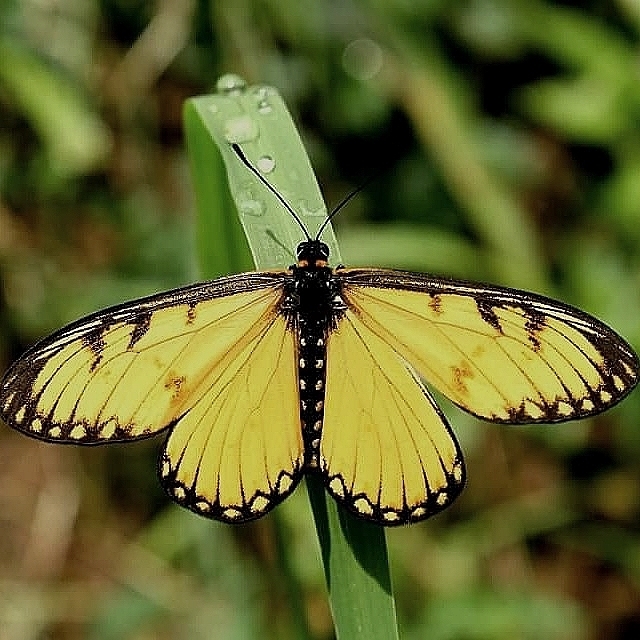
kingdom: Animalia
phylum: Arthropoda
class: Insecta
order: Lepidoptera
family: Nymphalidae
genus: Acraea
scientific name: Acraea Telchinia issoria
